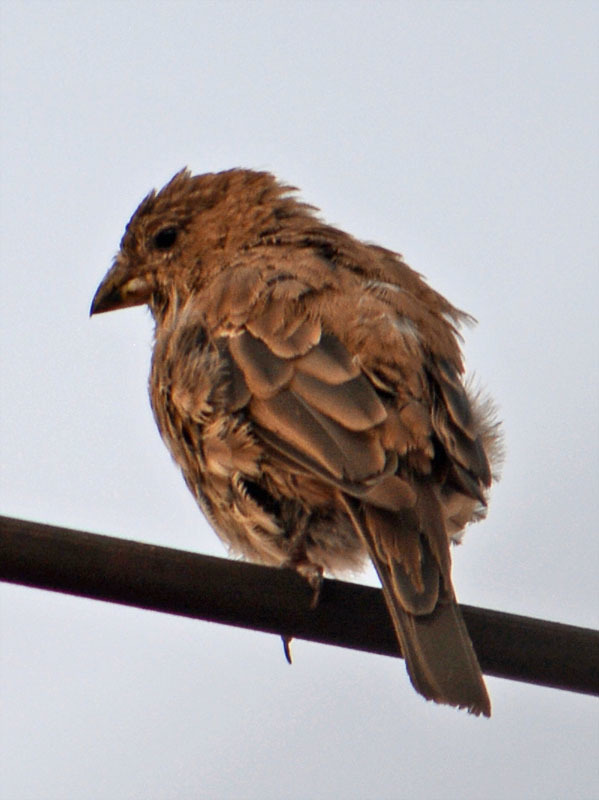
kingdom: Animalia
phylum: Chordata
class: Aves
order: Passeriformes
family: Fringillidae
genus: Haemorhous
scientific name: Haemorhous mexicanus
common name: House finch
